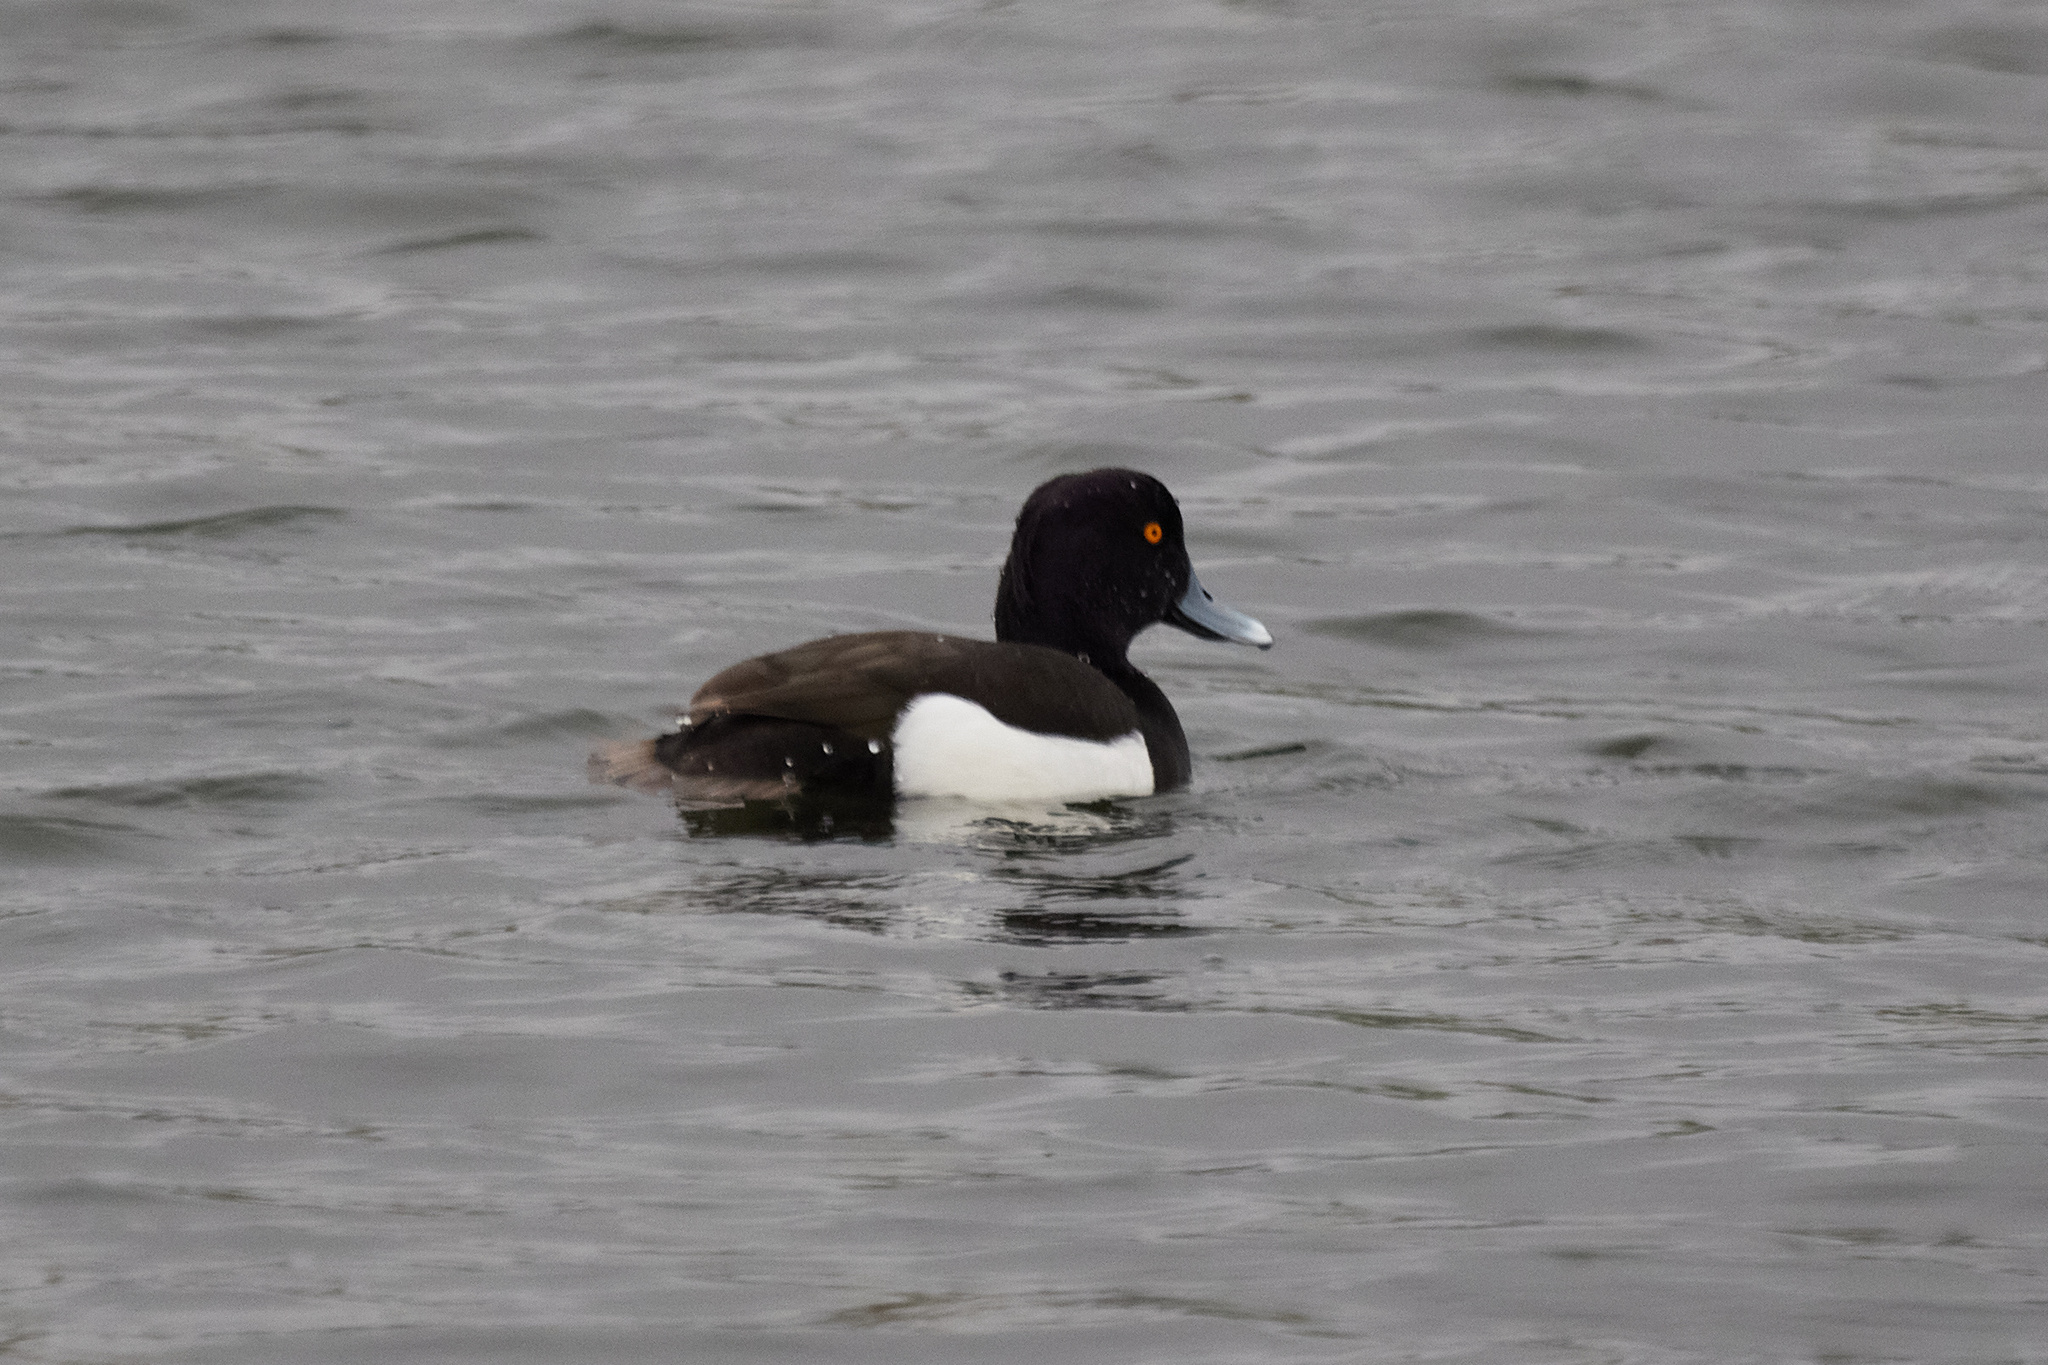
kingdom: Animalia
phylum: Chordata
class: Aves
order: Anseriformes
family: Anatidae
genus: Aythya
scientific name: Aythya fuligula
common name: Tufted duck
